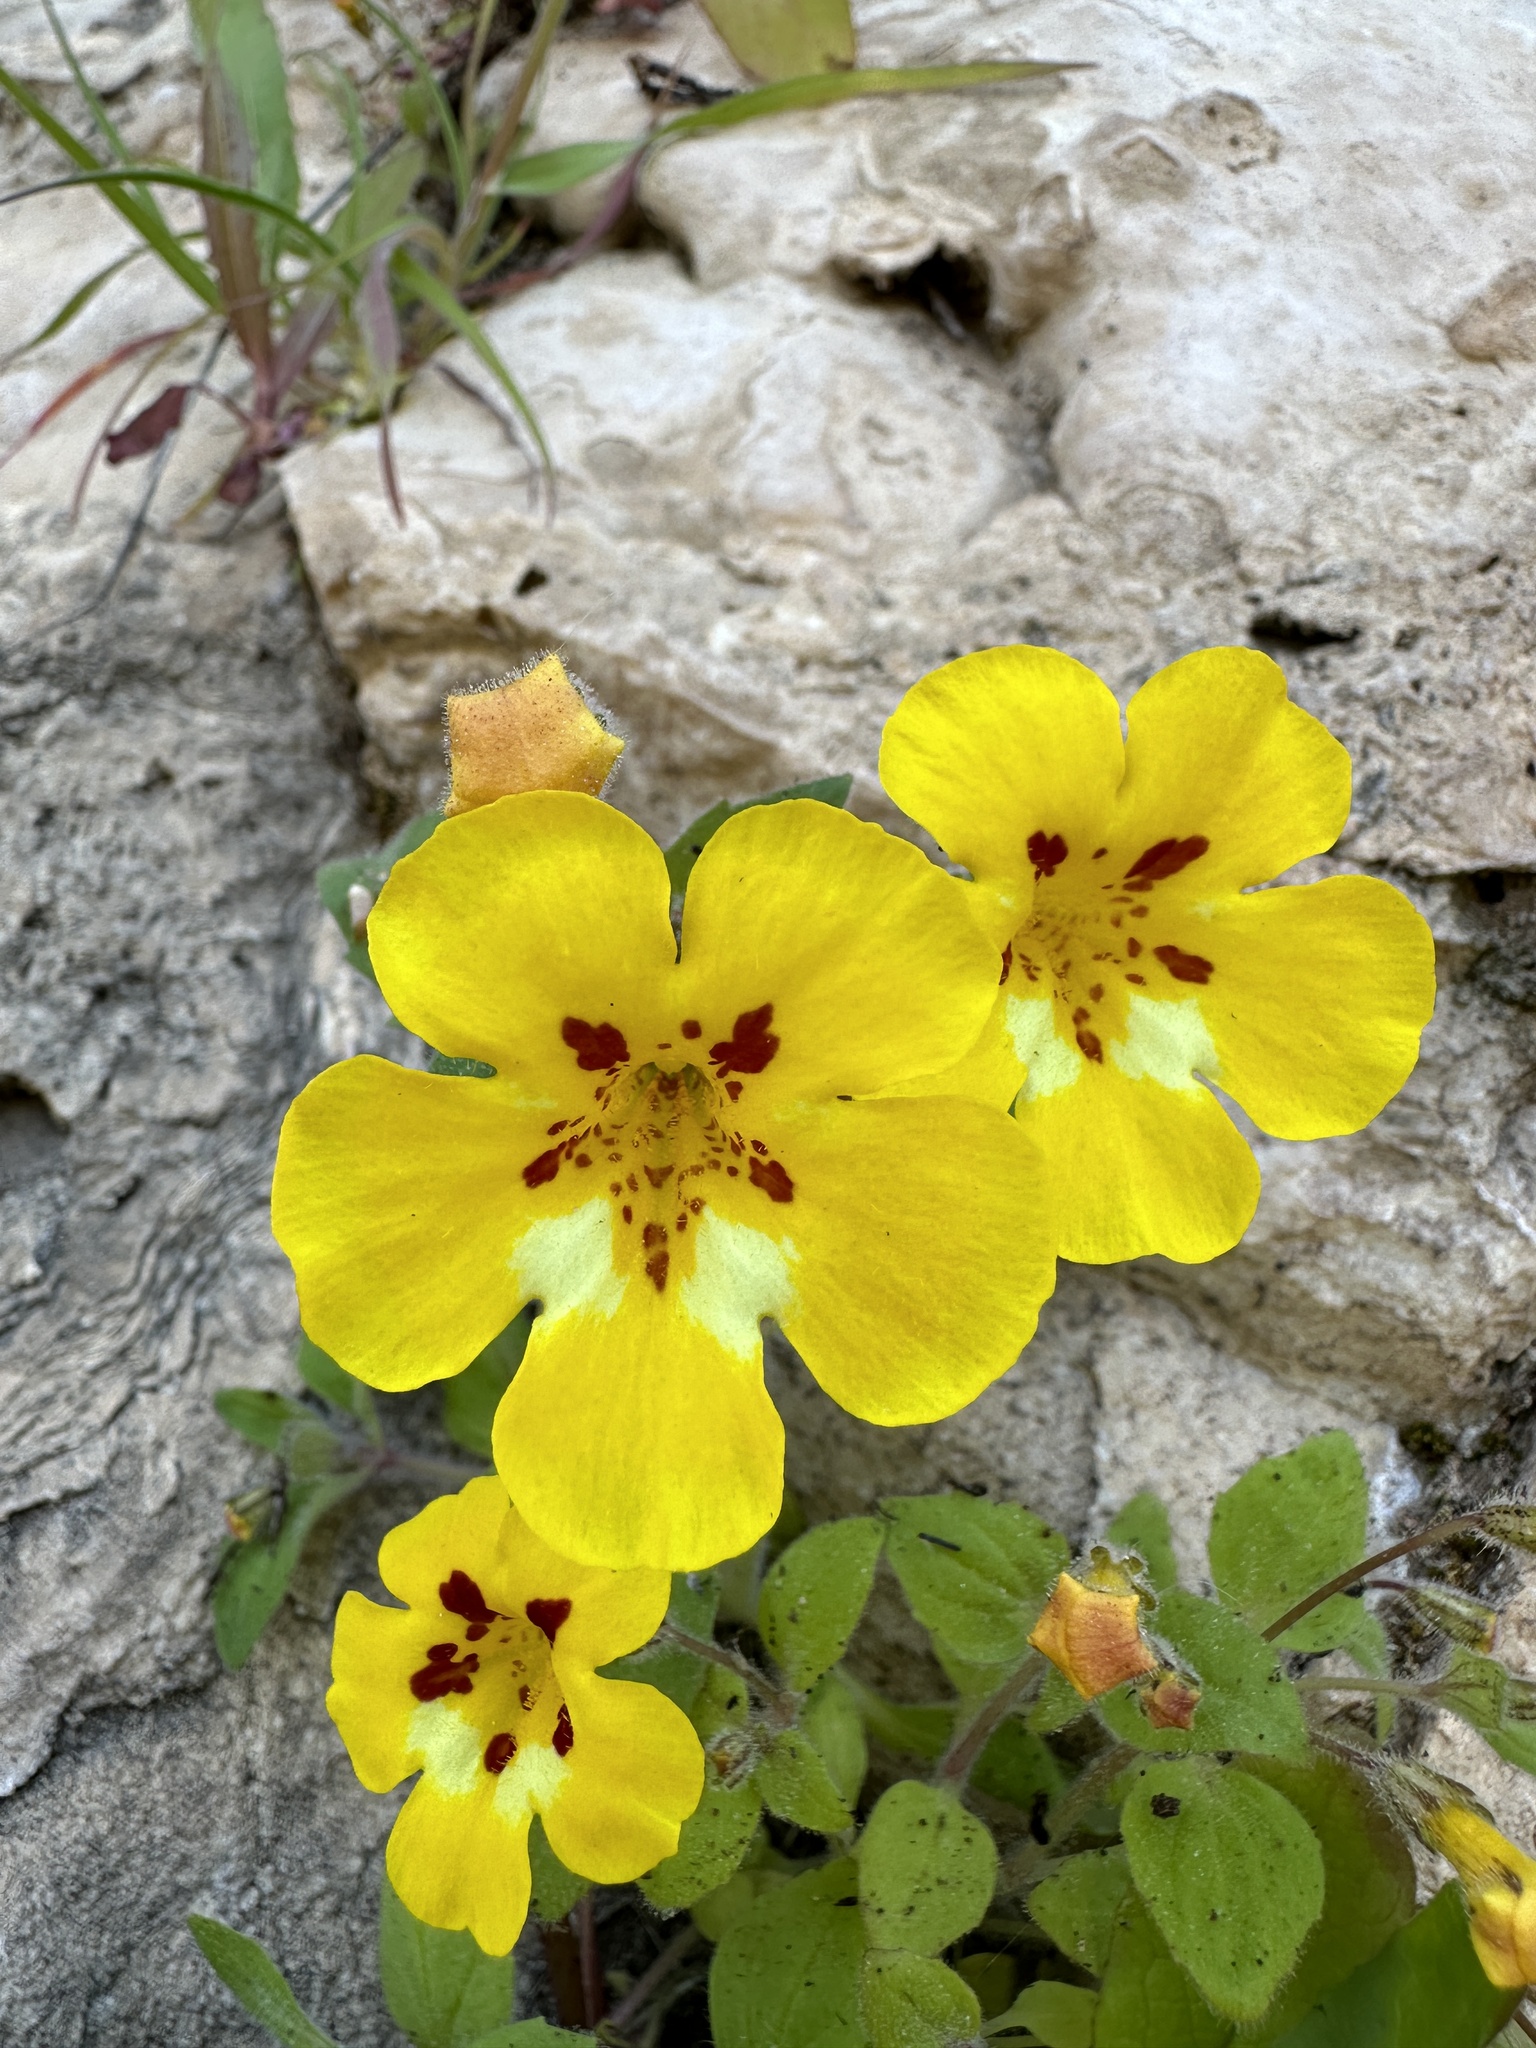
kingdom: Plantae
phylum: Tracheophyta
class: Magnoliopsida
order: Lamiales
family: Phrymaceae
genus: Erythranthe
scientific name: Erythranthe norrisii
